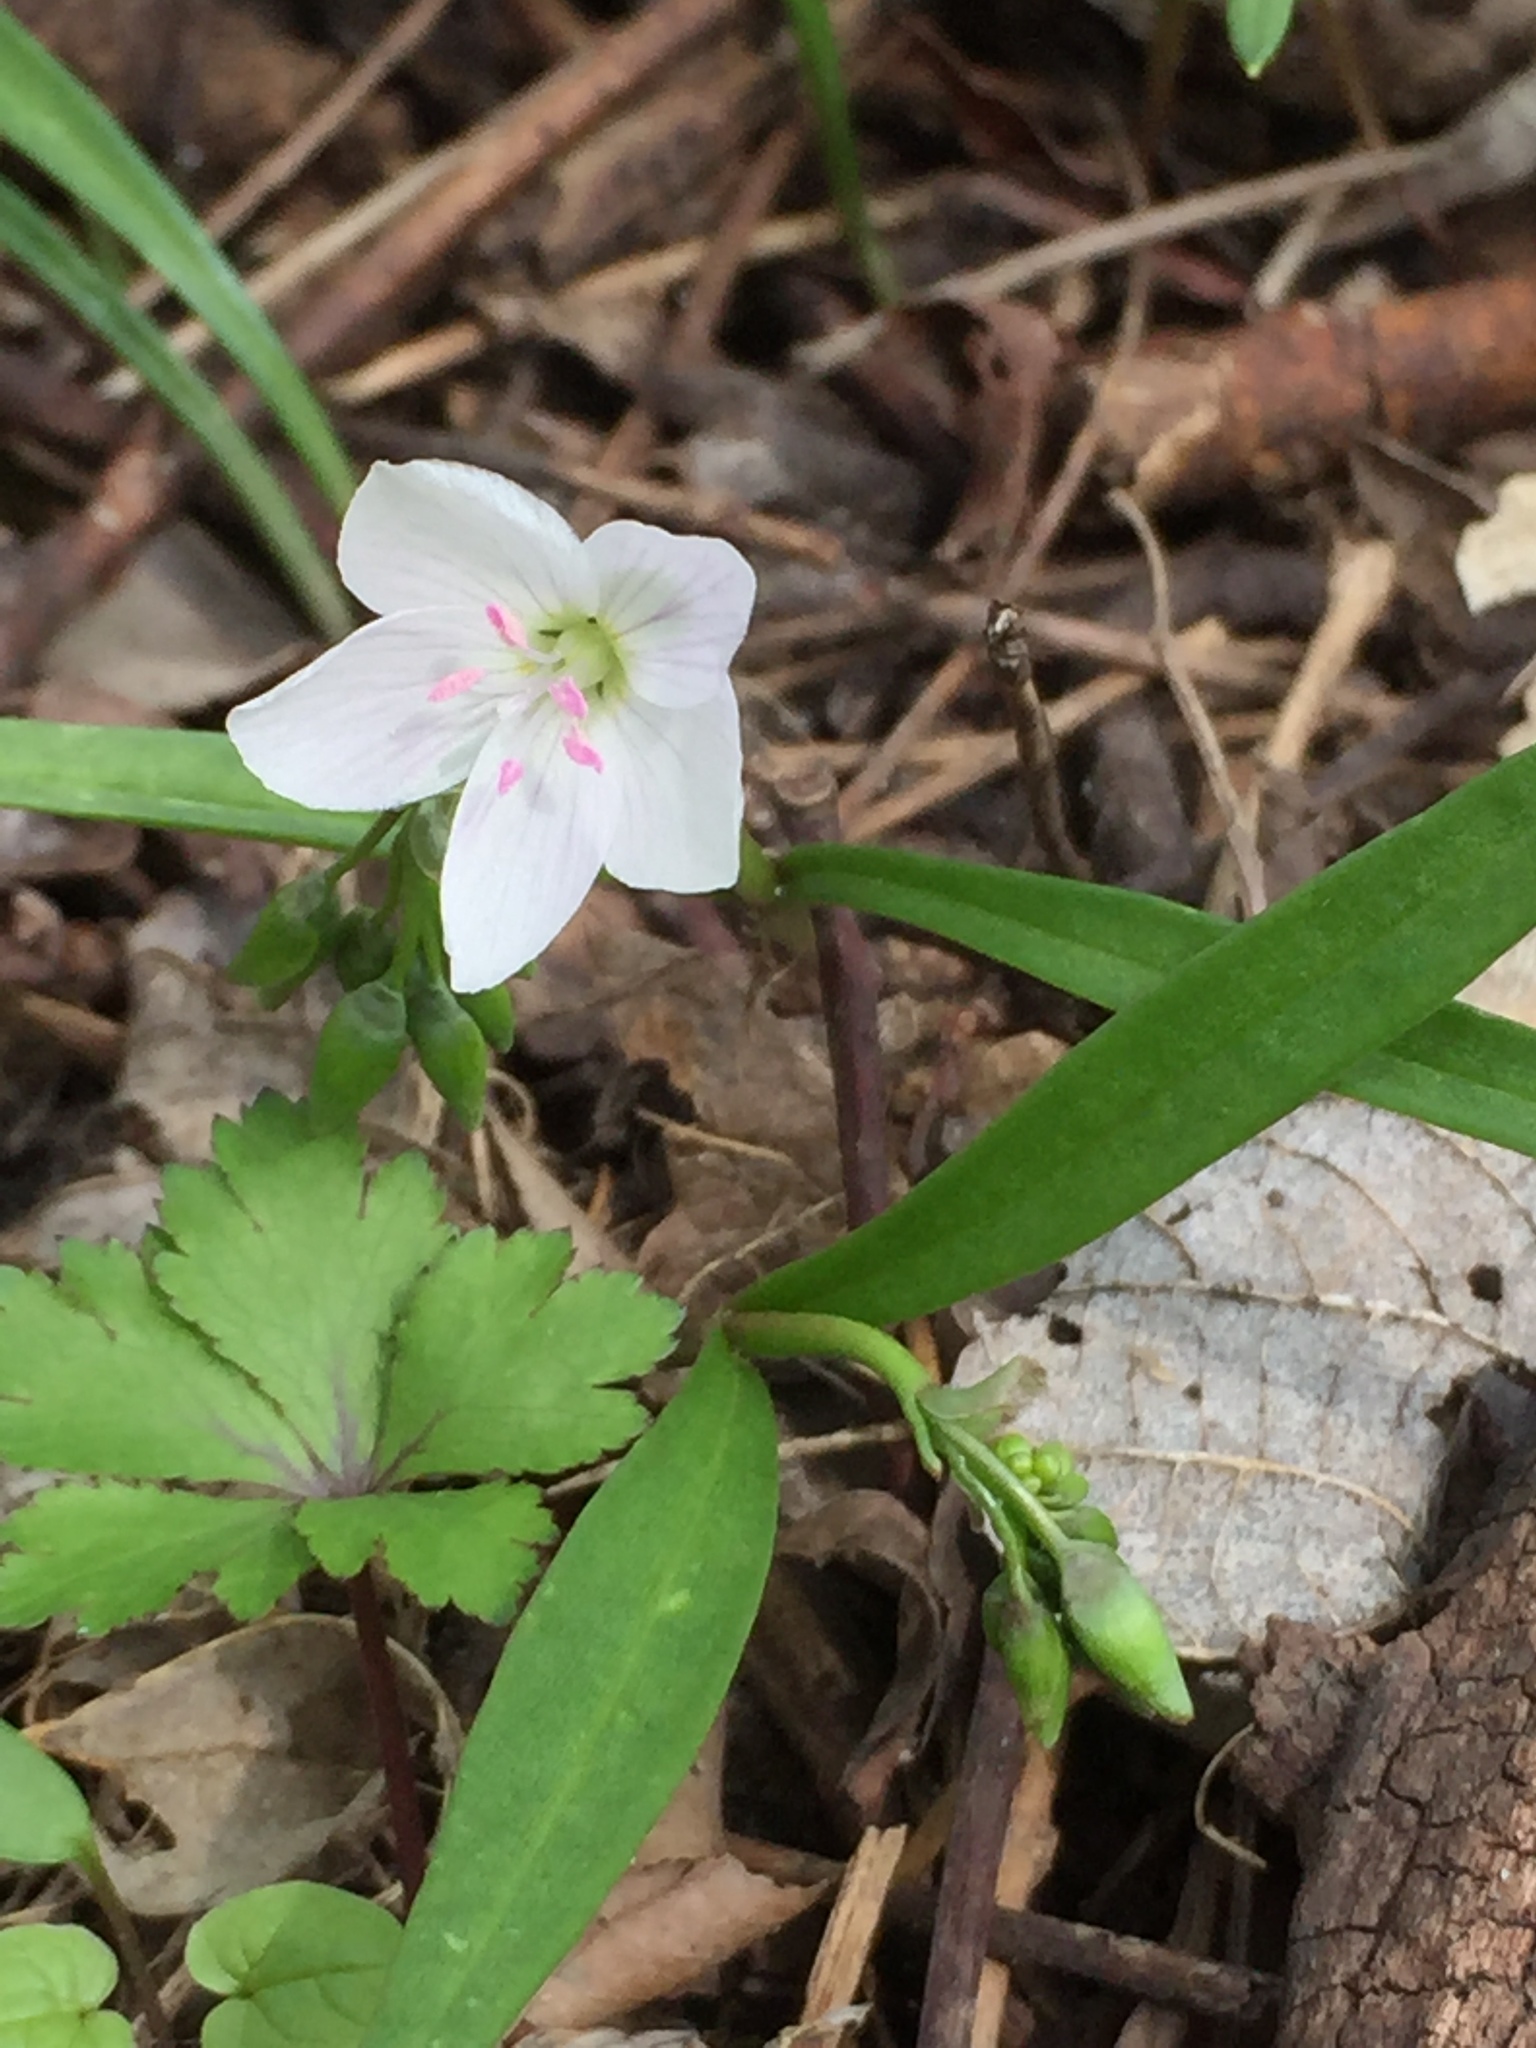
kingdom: Plantae
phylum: Tracheophyta
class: Magnoliopsida
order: Caryophyllales
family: Montiaceae
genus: Claytonia
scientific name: Claytonia virginica
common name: Virginia springbeauty
